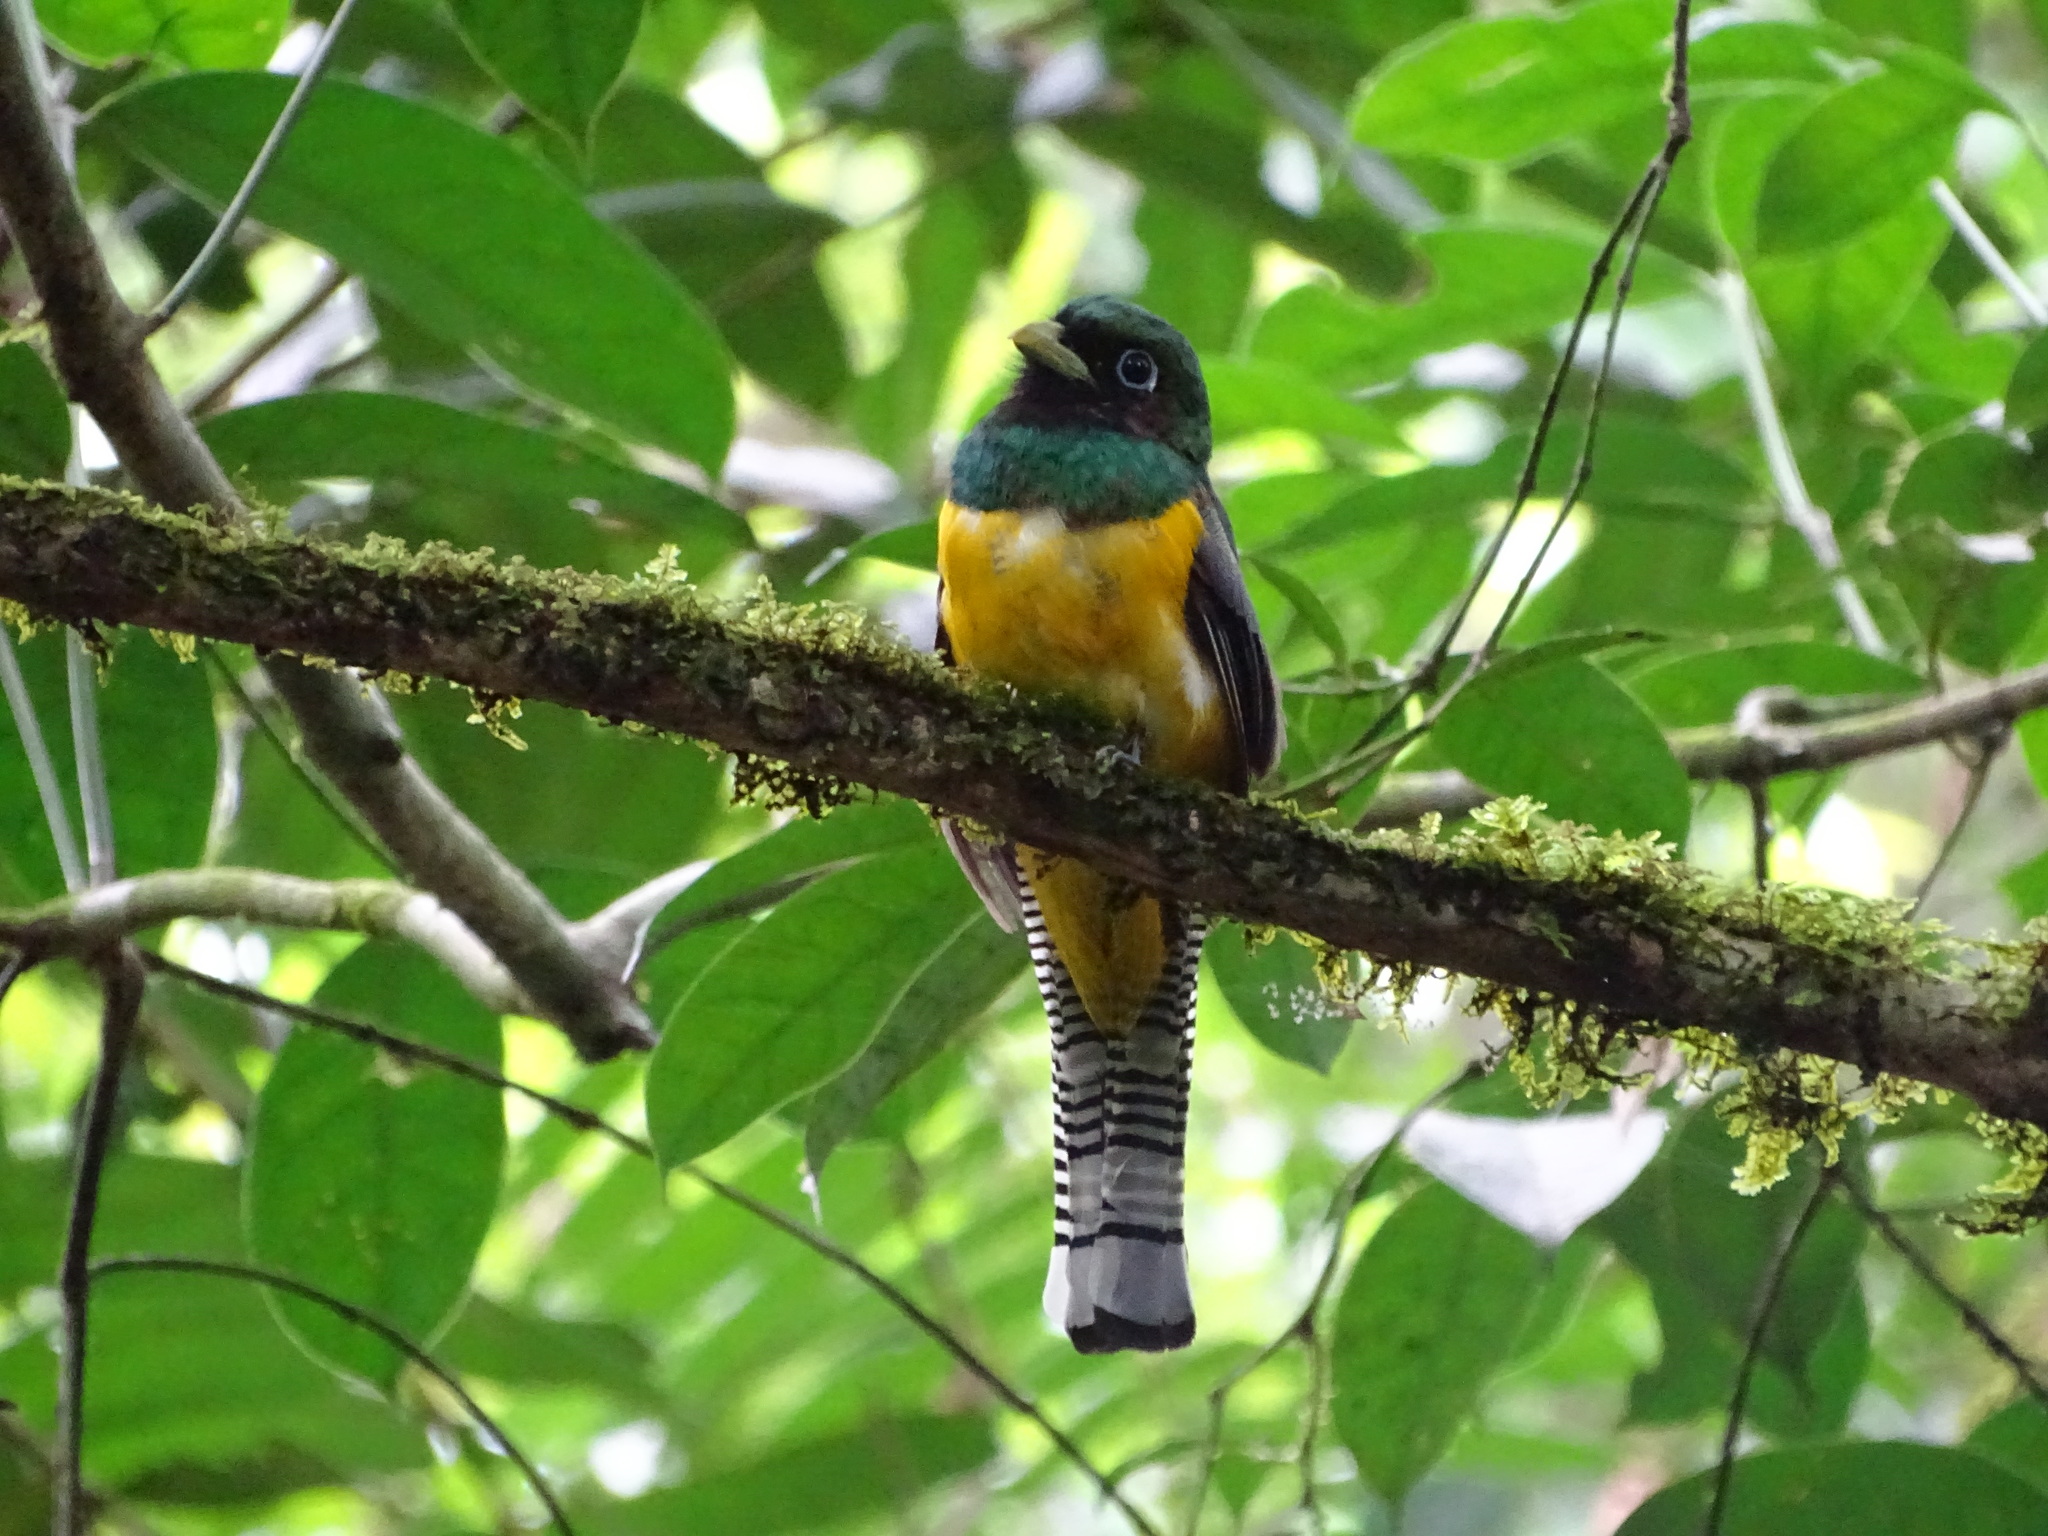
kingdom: Animalia
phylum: Chordata
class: Aves
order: Trogoniformes
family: Trogonidae
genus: Trogon
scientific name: Trogon rufus
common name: Black-throated trogon
